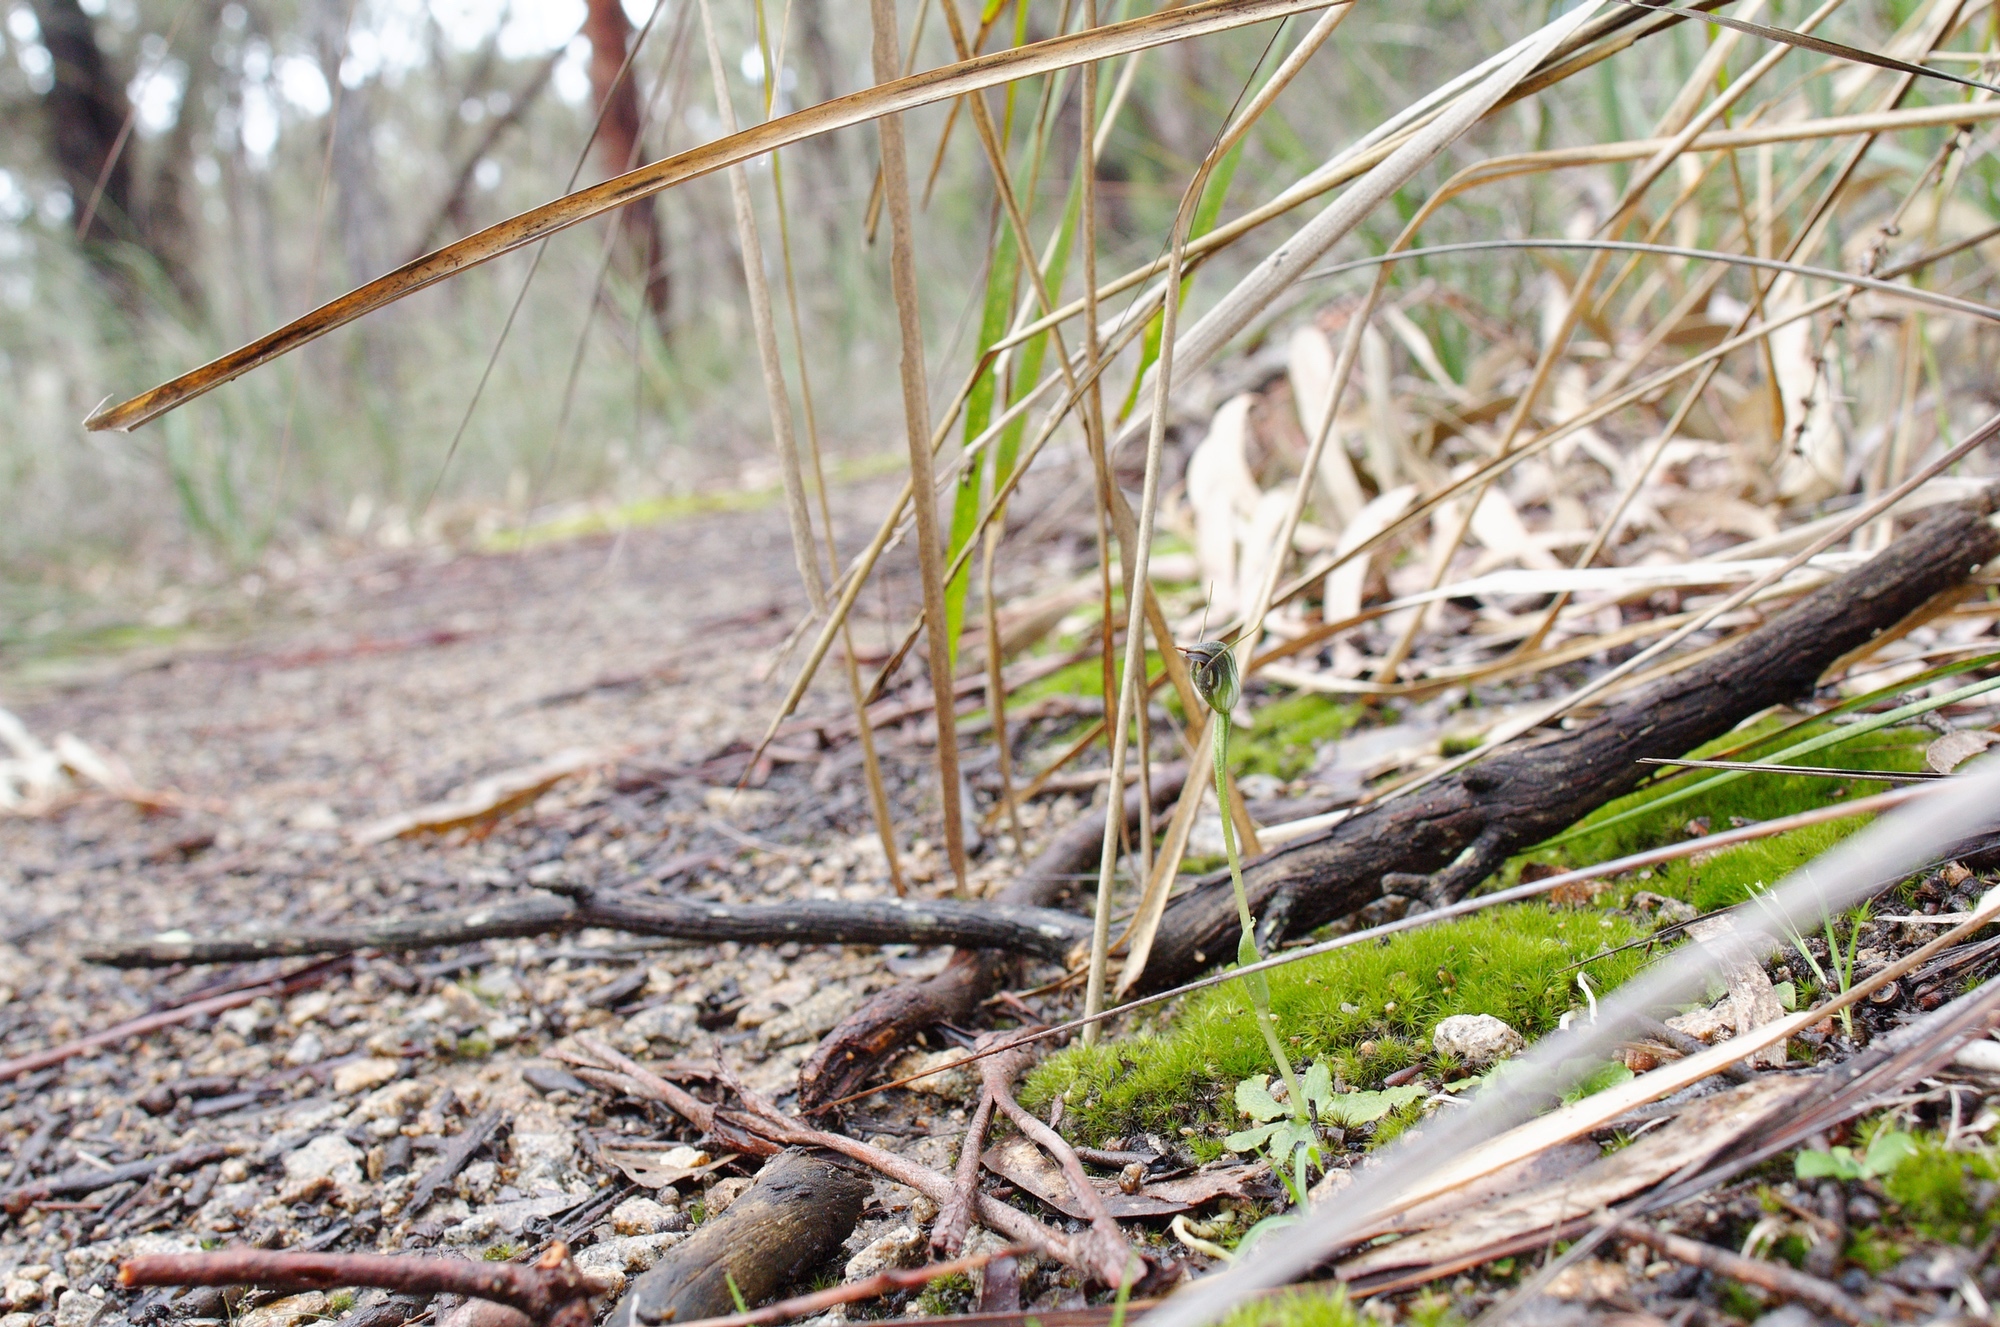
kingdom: Plantae
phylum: Tracheophyta
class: Liliopsida
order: Asparagales
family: Orchidaceae
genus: Pterostylis
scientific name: Pterostylis pedunculata
